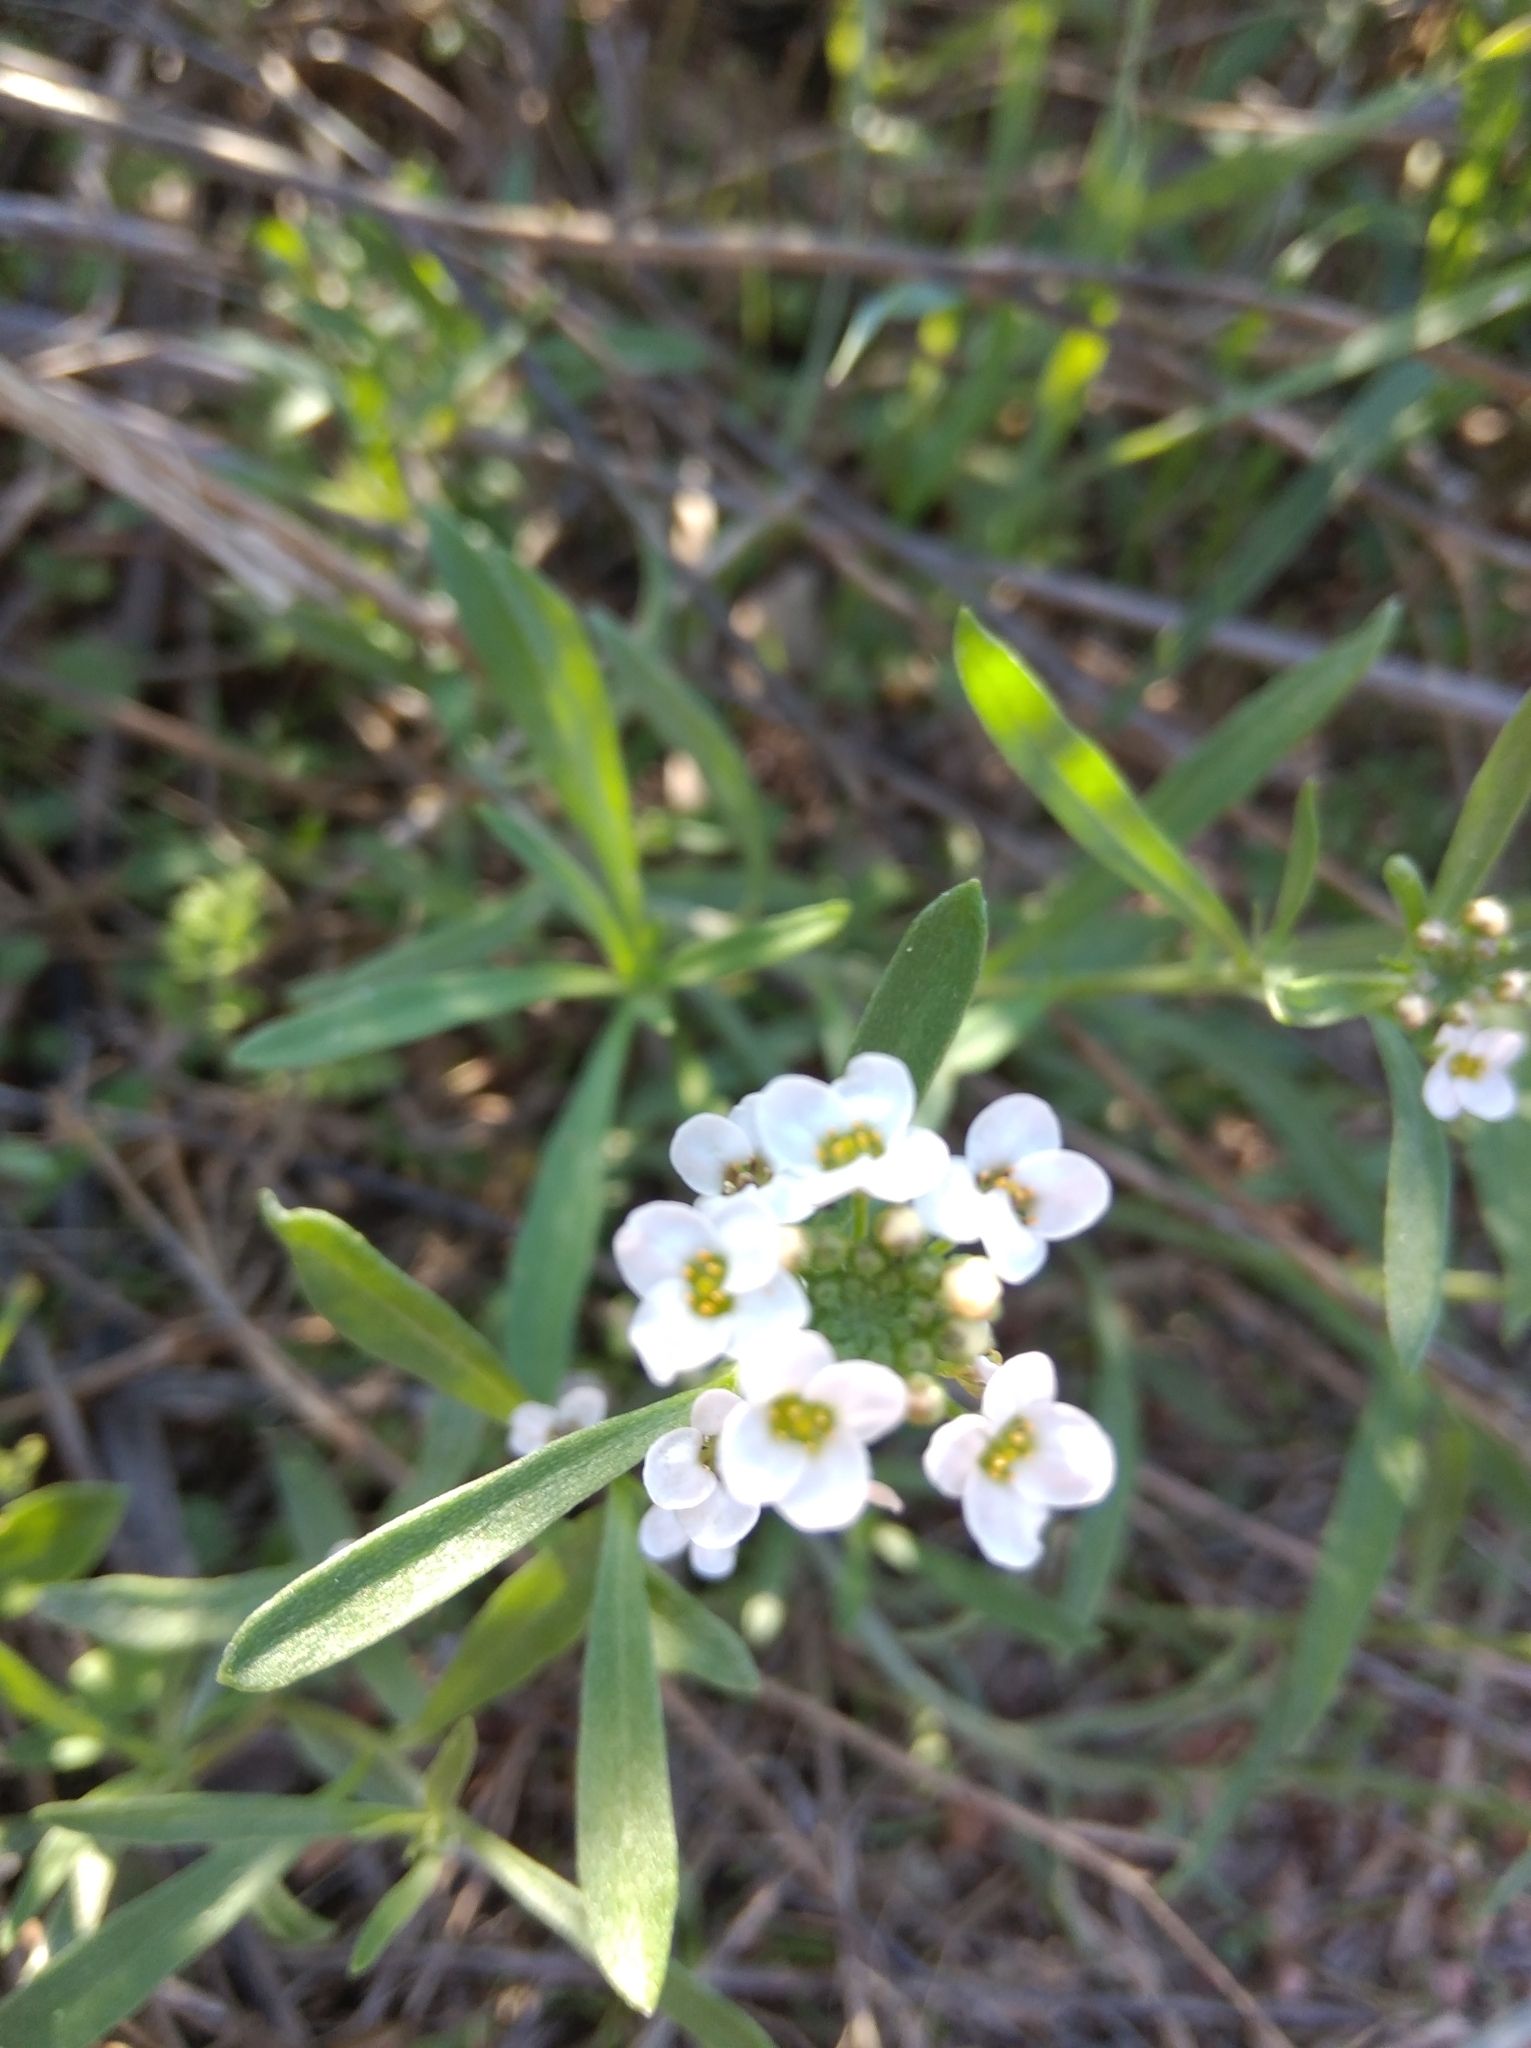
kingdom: Plantae
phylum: Tracheophyta
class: Magnoliopsida
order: Brassicales
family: Brassicaceae
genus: Lobularia
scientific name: Lobularia maritima
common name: Sweet alison
